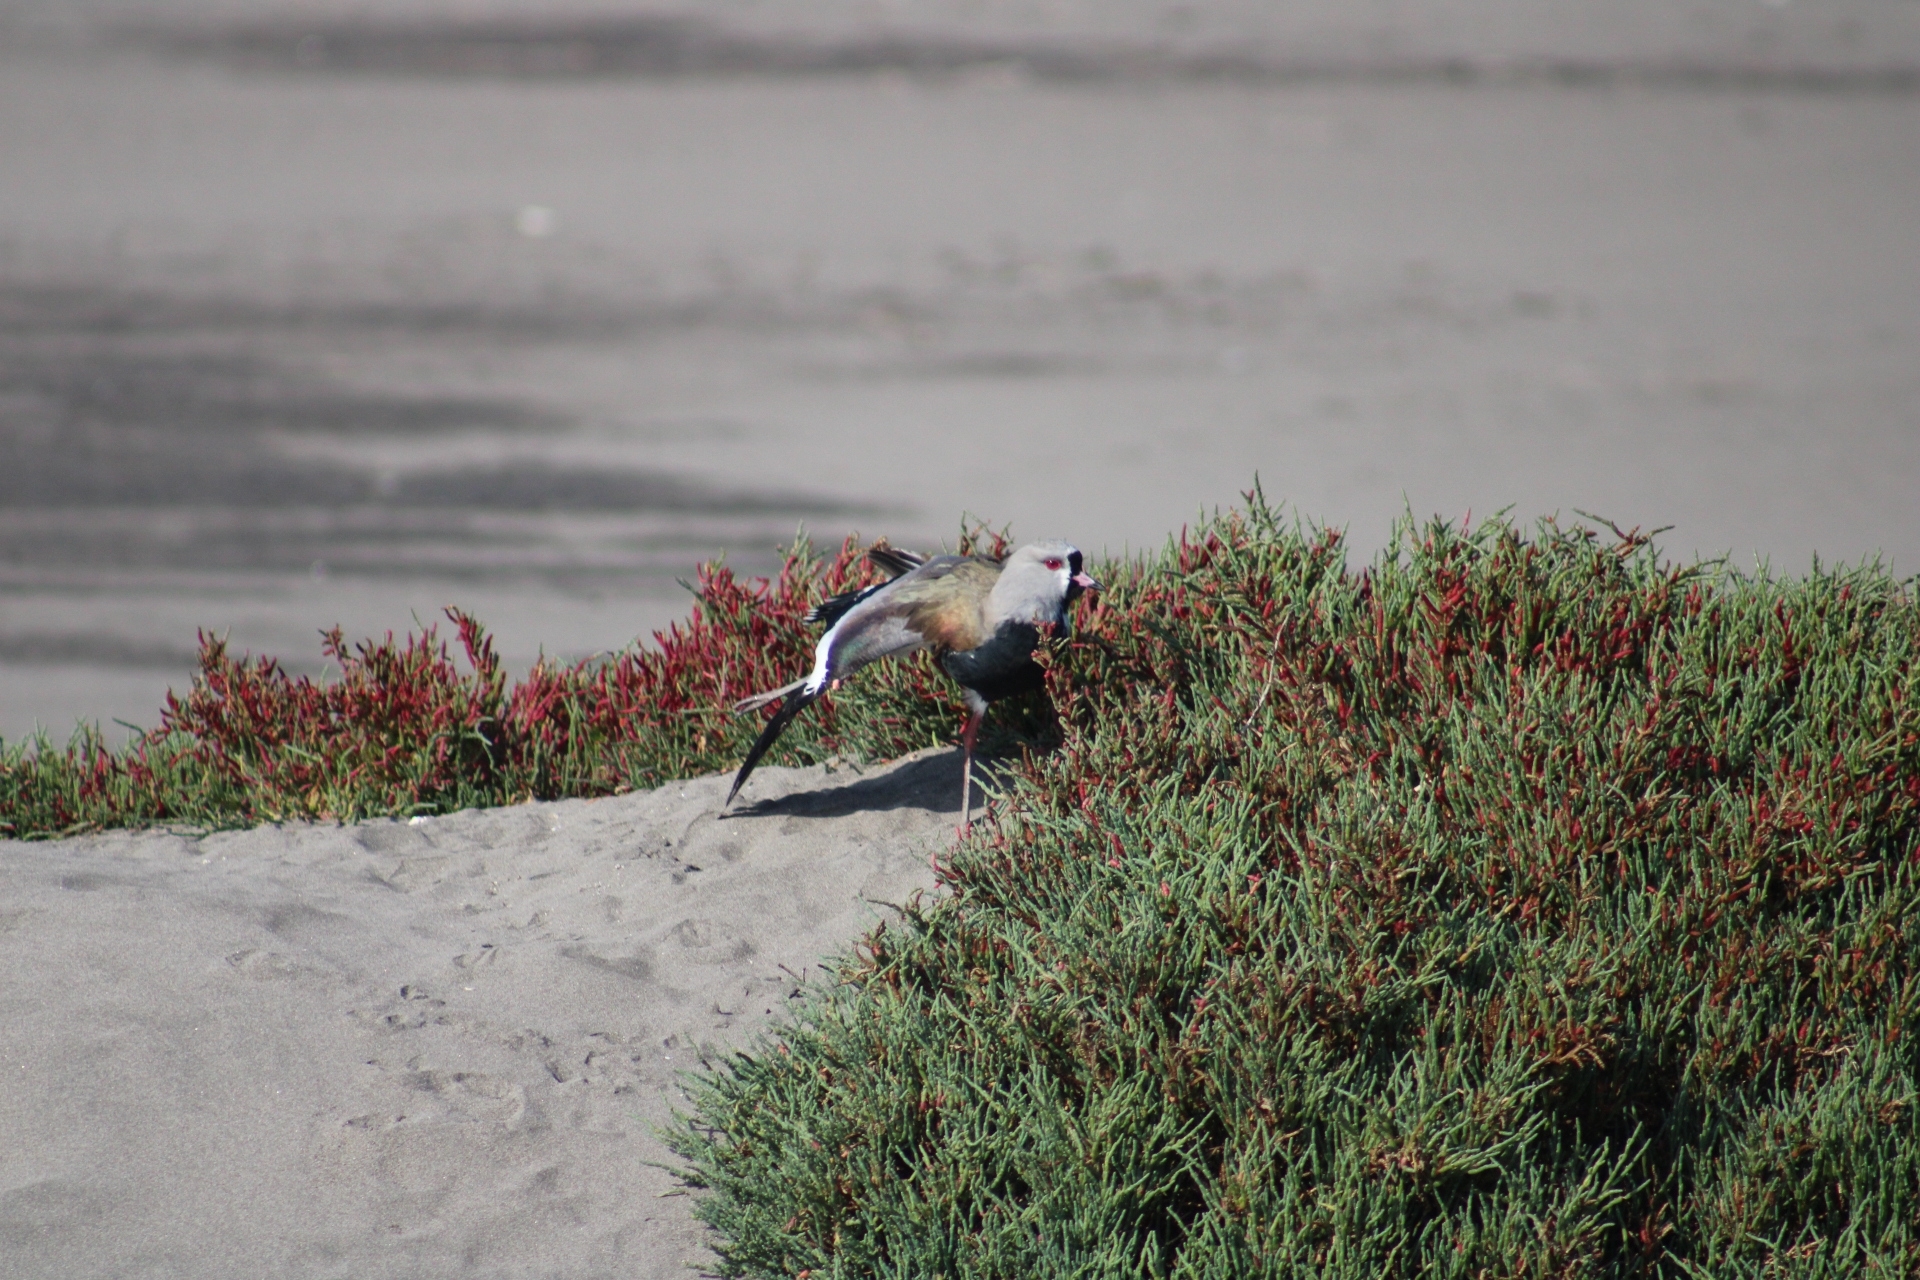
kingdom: Animalia
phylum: Chordata
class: Aves
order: Charadriiformes
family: Charadriidae
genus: Vanellus
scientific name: Vanellus chilensis
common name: Southern lapwing
